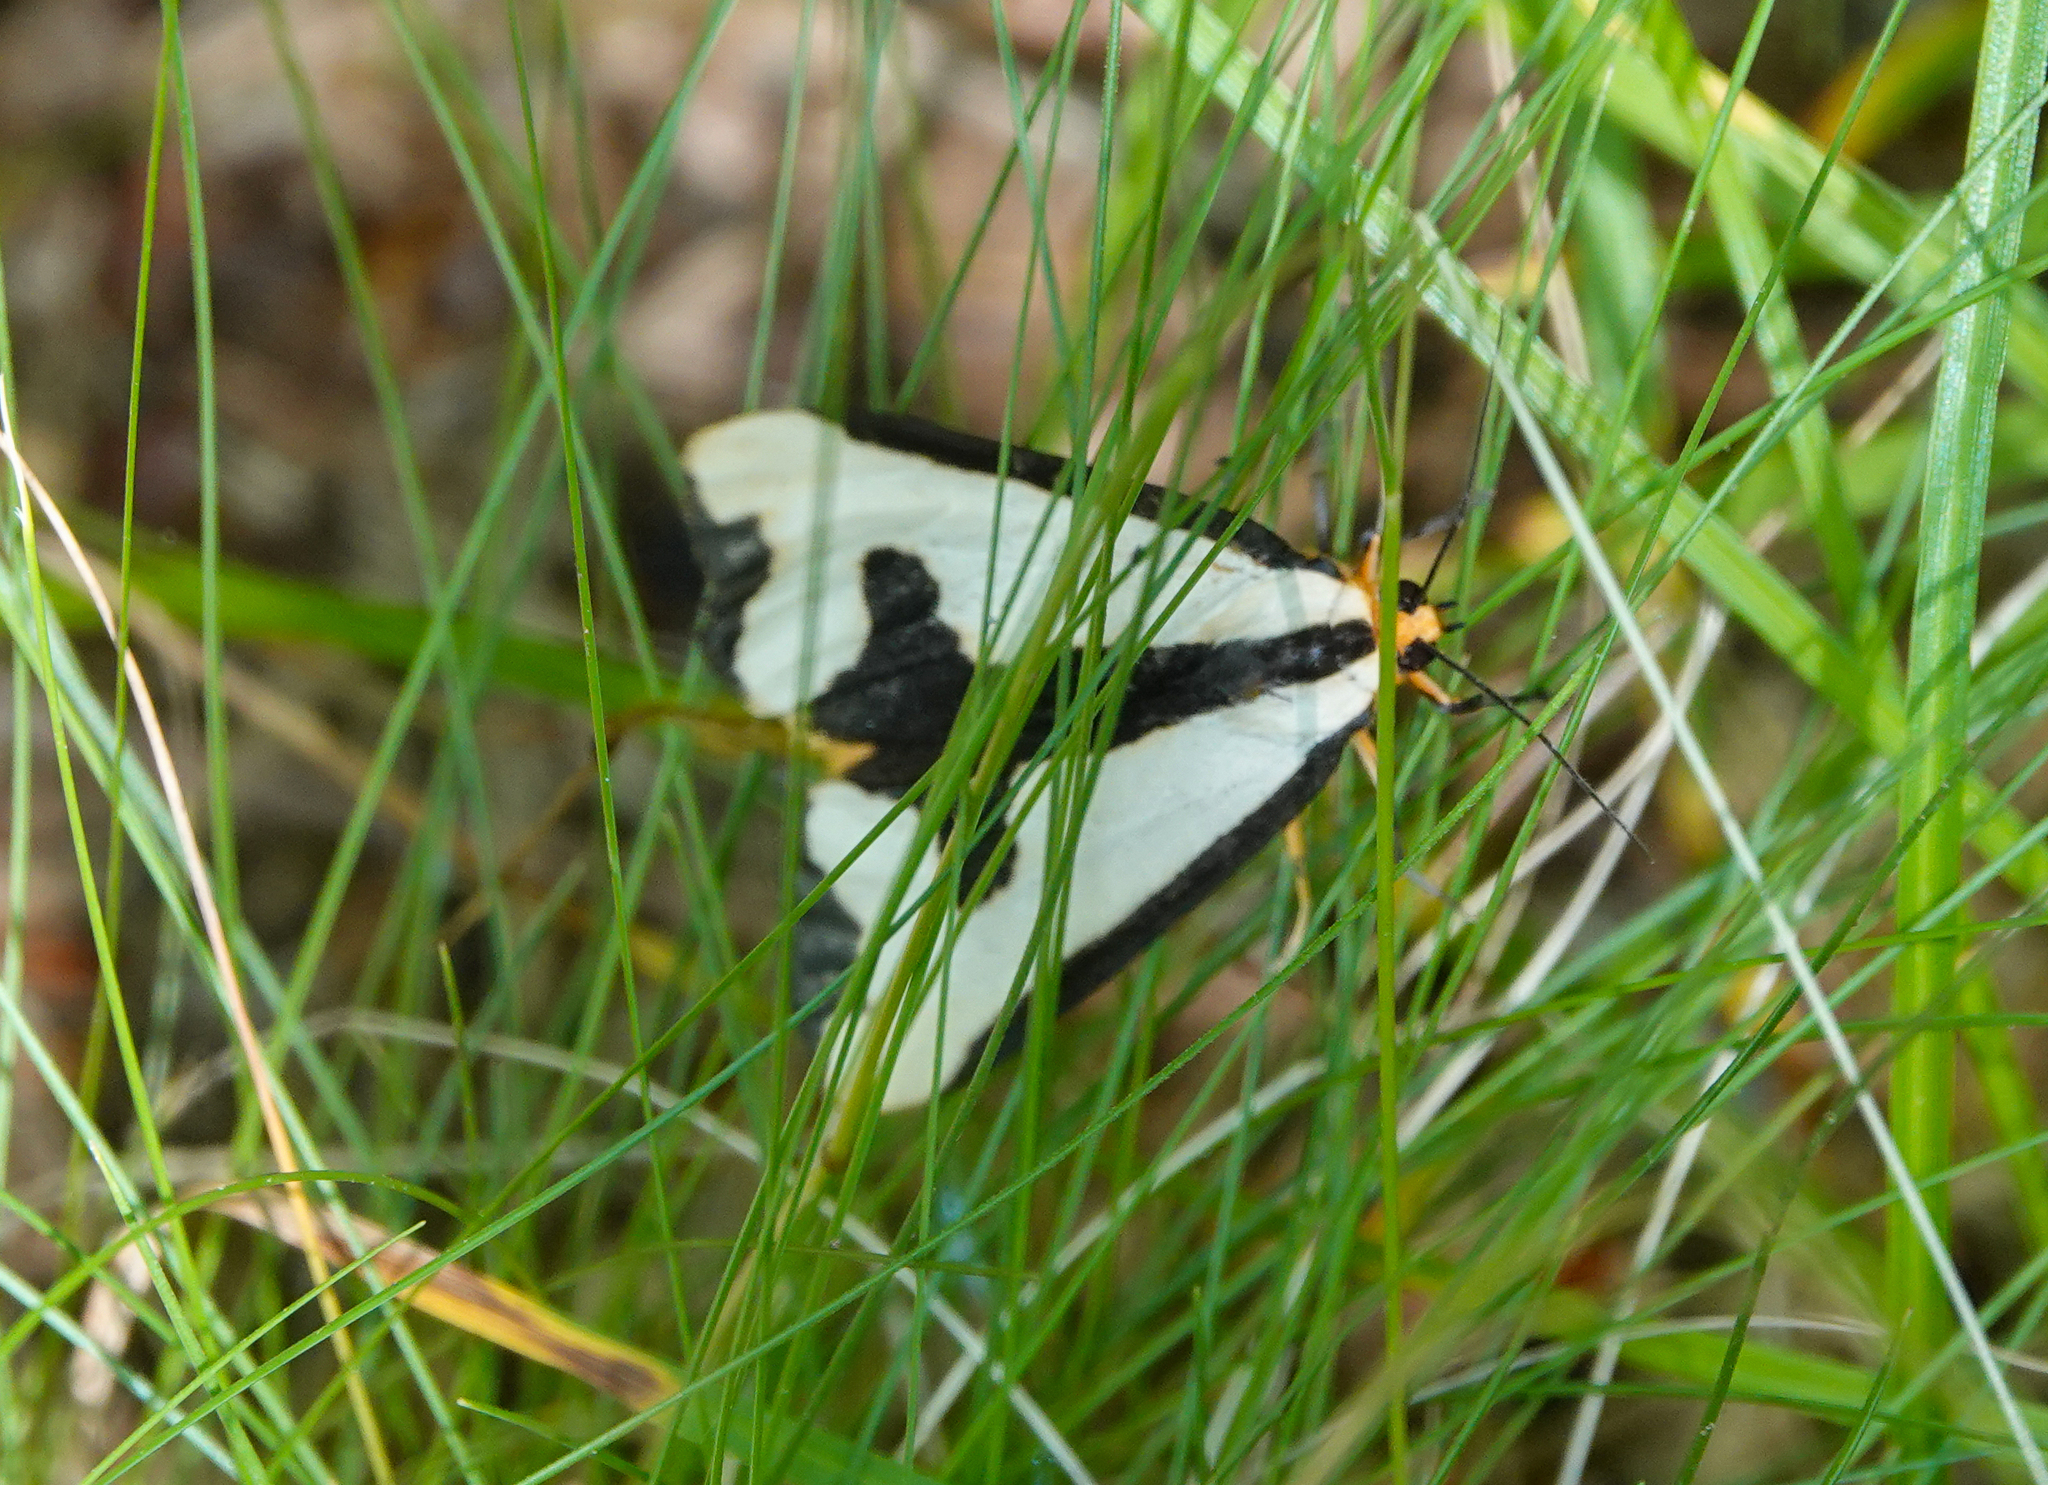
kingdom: Animalia
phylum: Arthropoda
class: Insecta
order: Lepidoptera
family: Erebidae
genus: Haploa
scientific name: Haploa clymene
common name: Clymene moth
